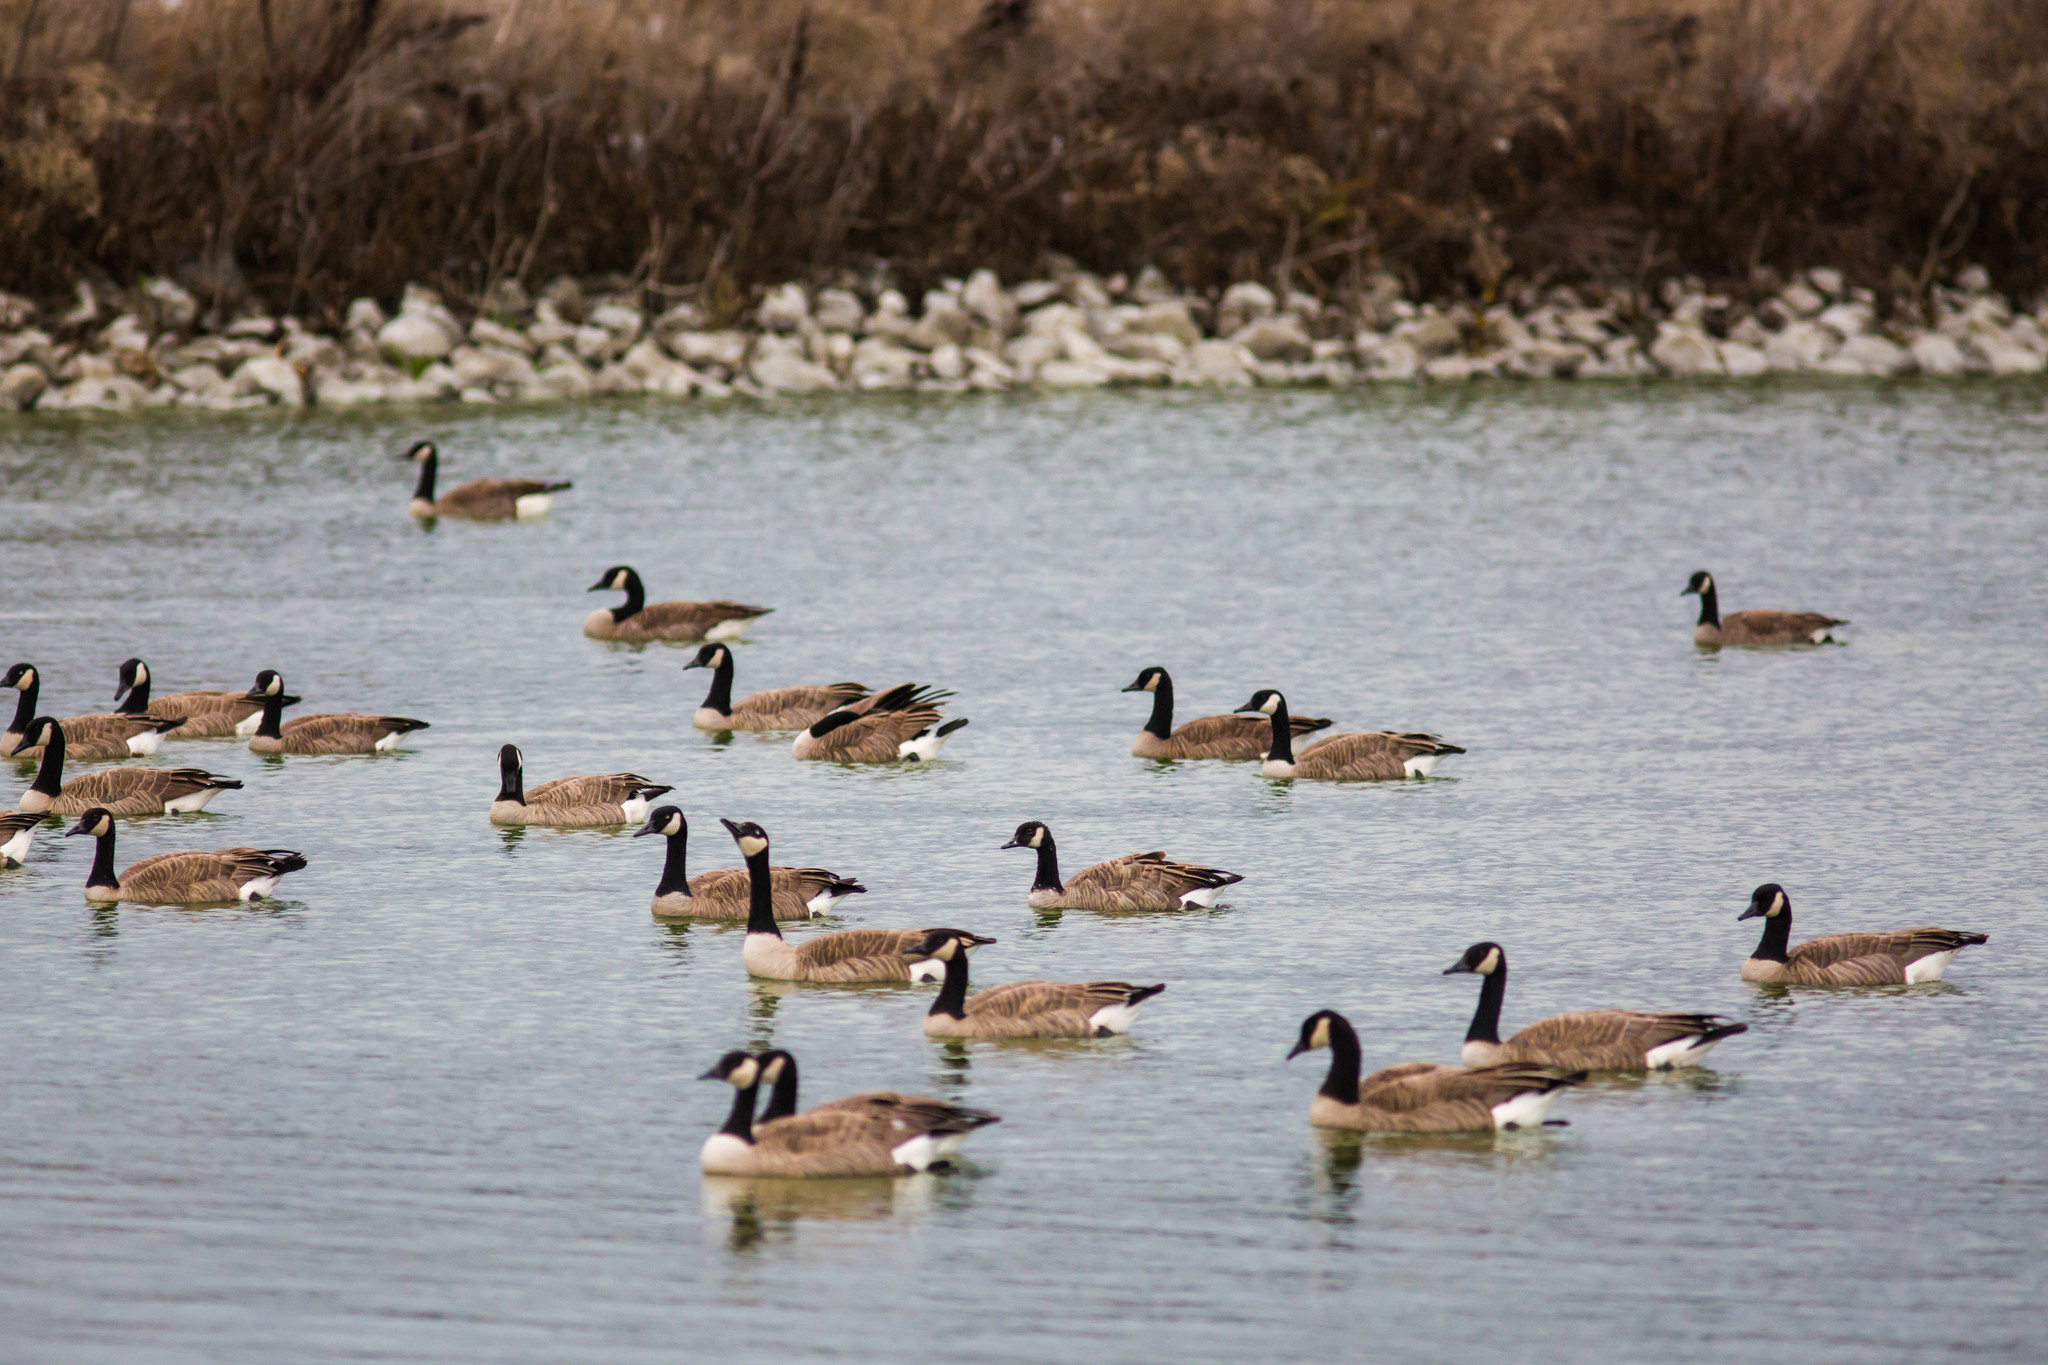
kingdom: Animalia
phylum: Chordata
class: Aves
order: Anseriformes
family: Anatidae
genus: Branta
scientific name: Branta canadensis
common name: Canada goose
